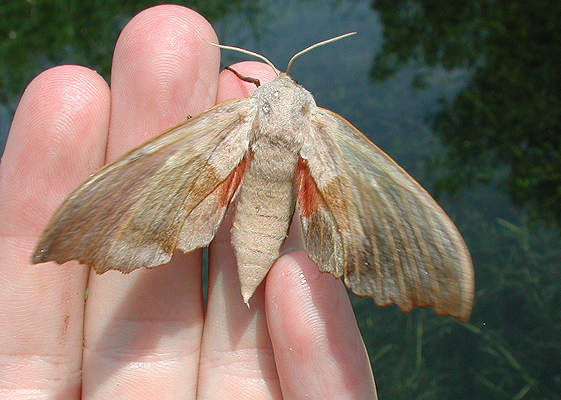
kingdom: Animalia
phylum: Arthropoda
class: Insecta
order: Lepidoptera
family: Sphingidae
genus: Laothoe
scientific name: Laothoe populi
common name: Poplar hawk-moth
